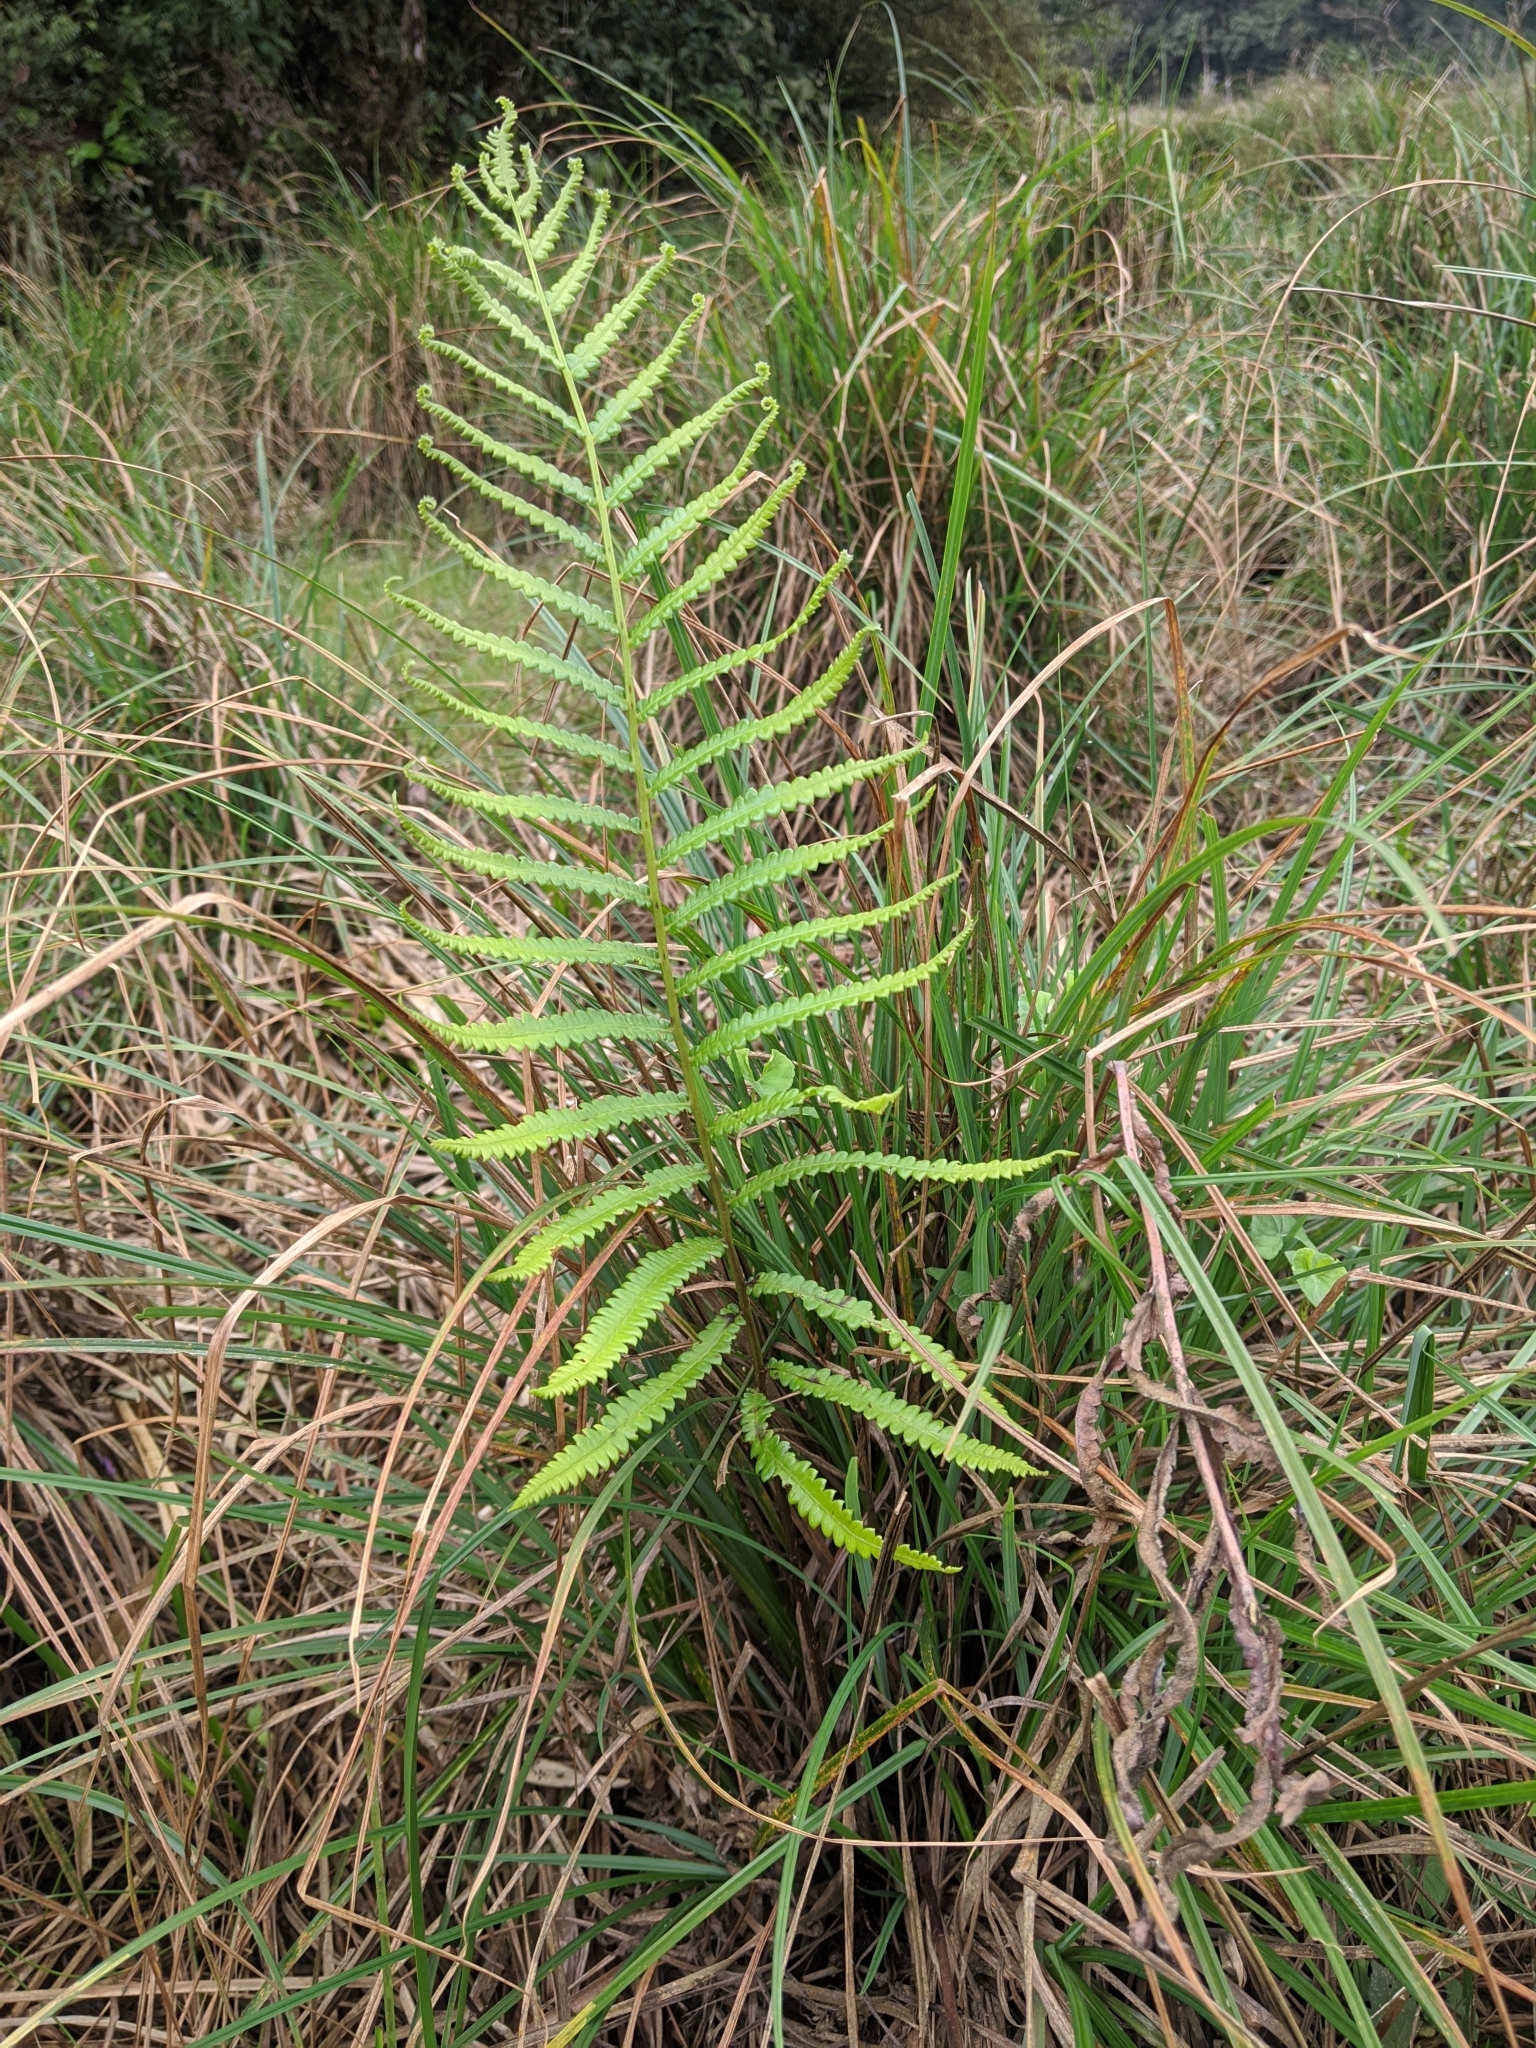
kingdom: Plantae
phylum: Tracheophyta
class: Polypodiopsida
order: Polypodiales
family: Thelypteridaceae
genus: Cyclosorus
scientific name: Cyclosorus interruptus
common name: Neke fern
